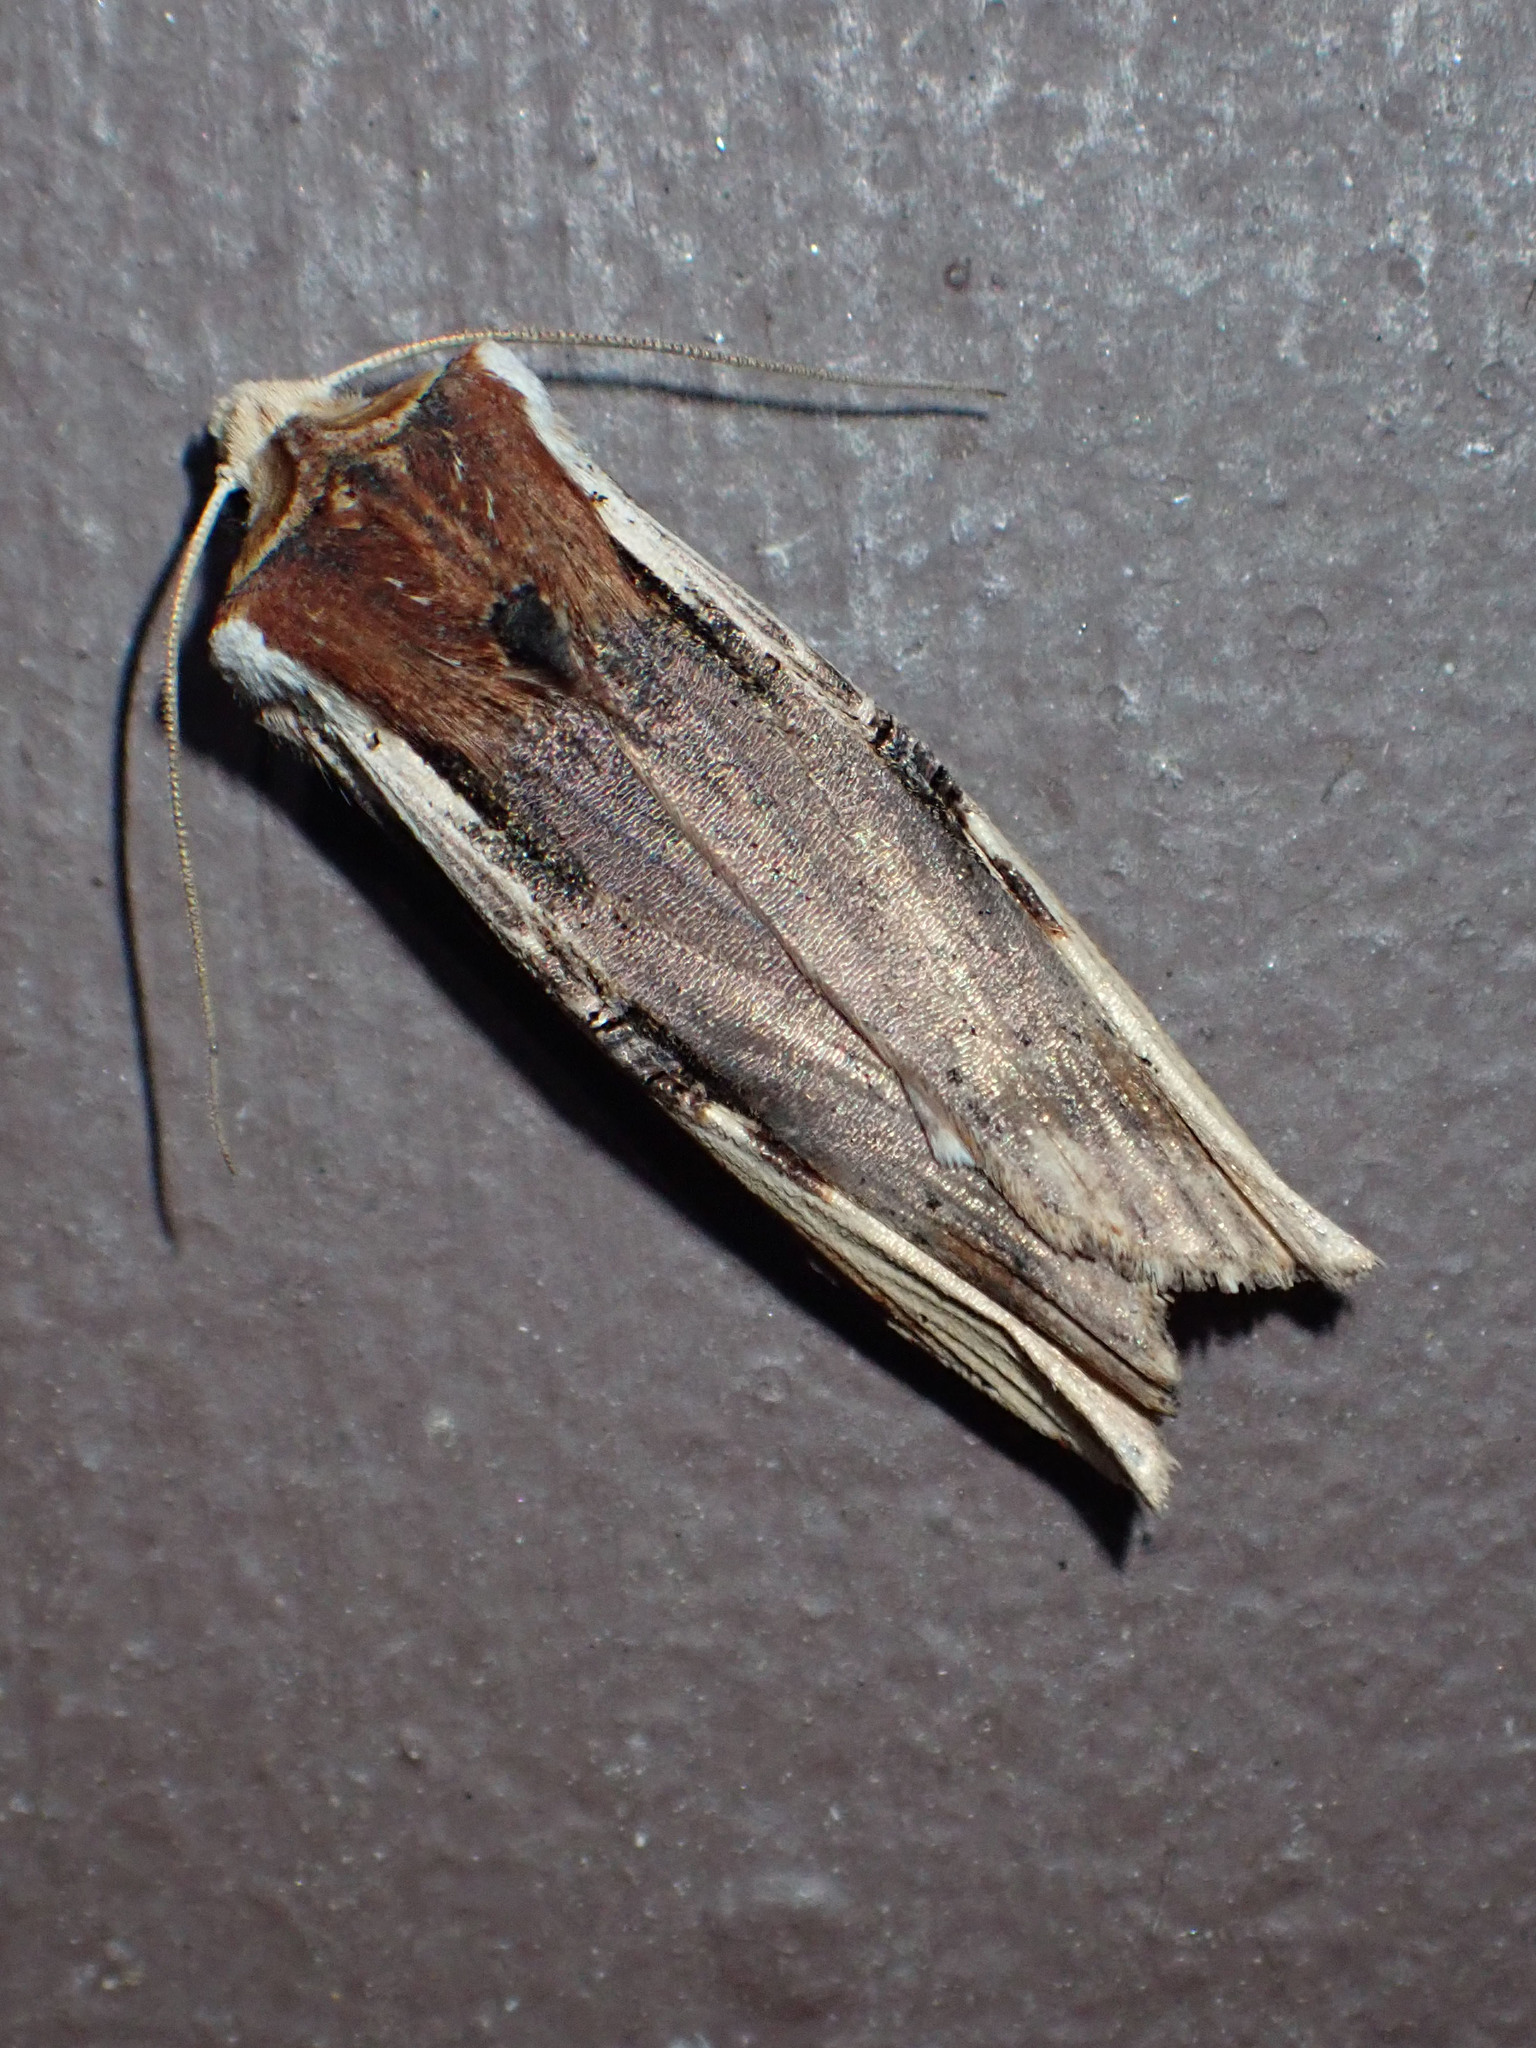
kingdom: Animalia
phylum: Arthropoda
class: Insecta
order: Lepidoptera
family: Noctuidae
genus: Xylena
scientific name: Xylena curvimacula
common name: Dot-and-dash swordgrass moth
